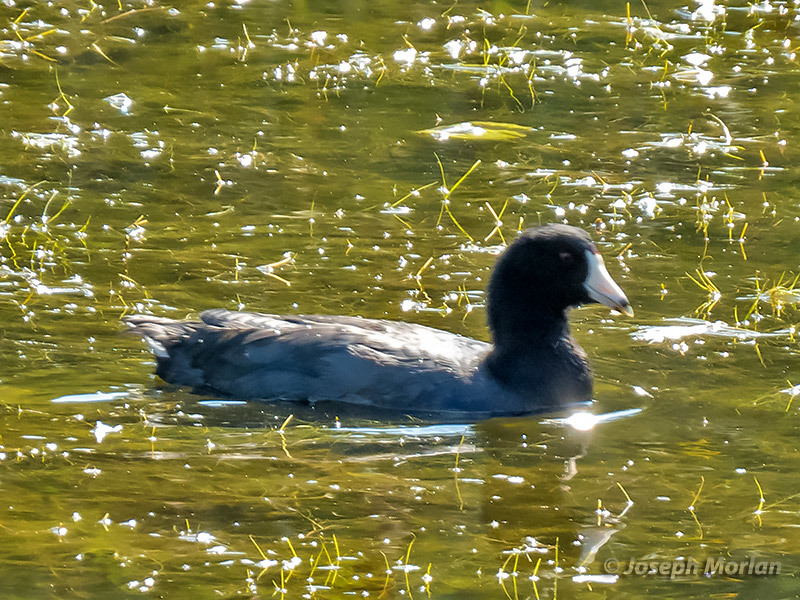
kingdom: Animalia
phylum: Chordata
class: Aves
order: Gruiformes
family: Rallidae
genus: Fulica
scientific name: Fulica americana
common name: American coot
